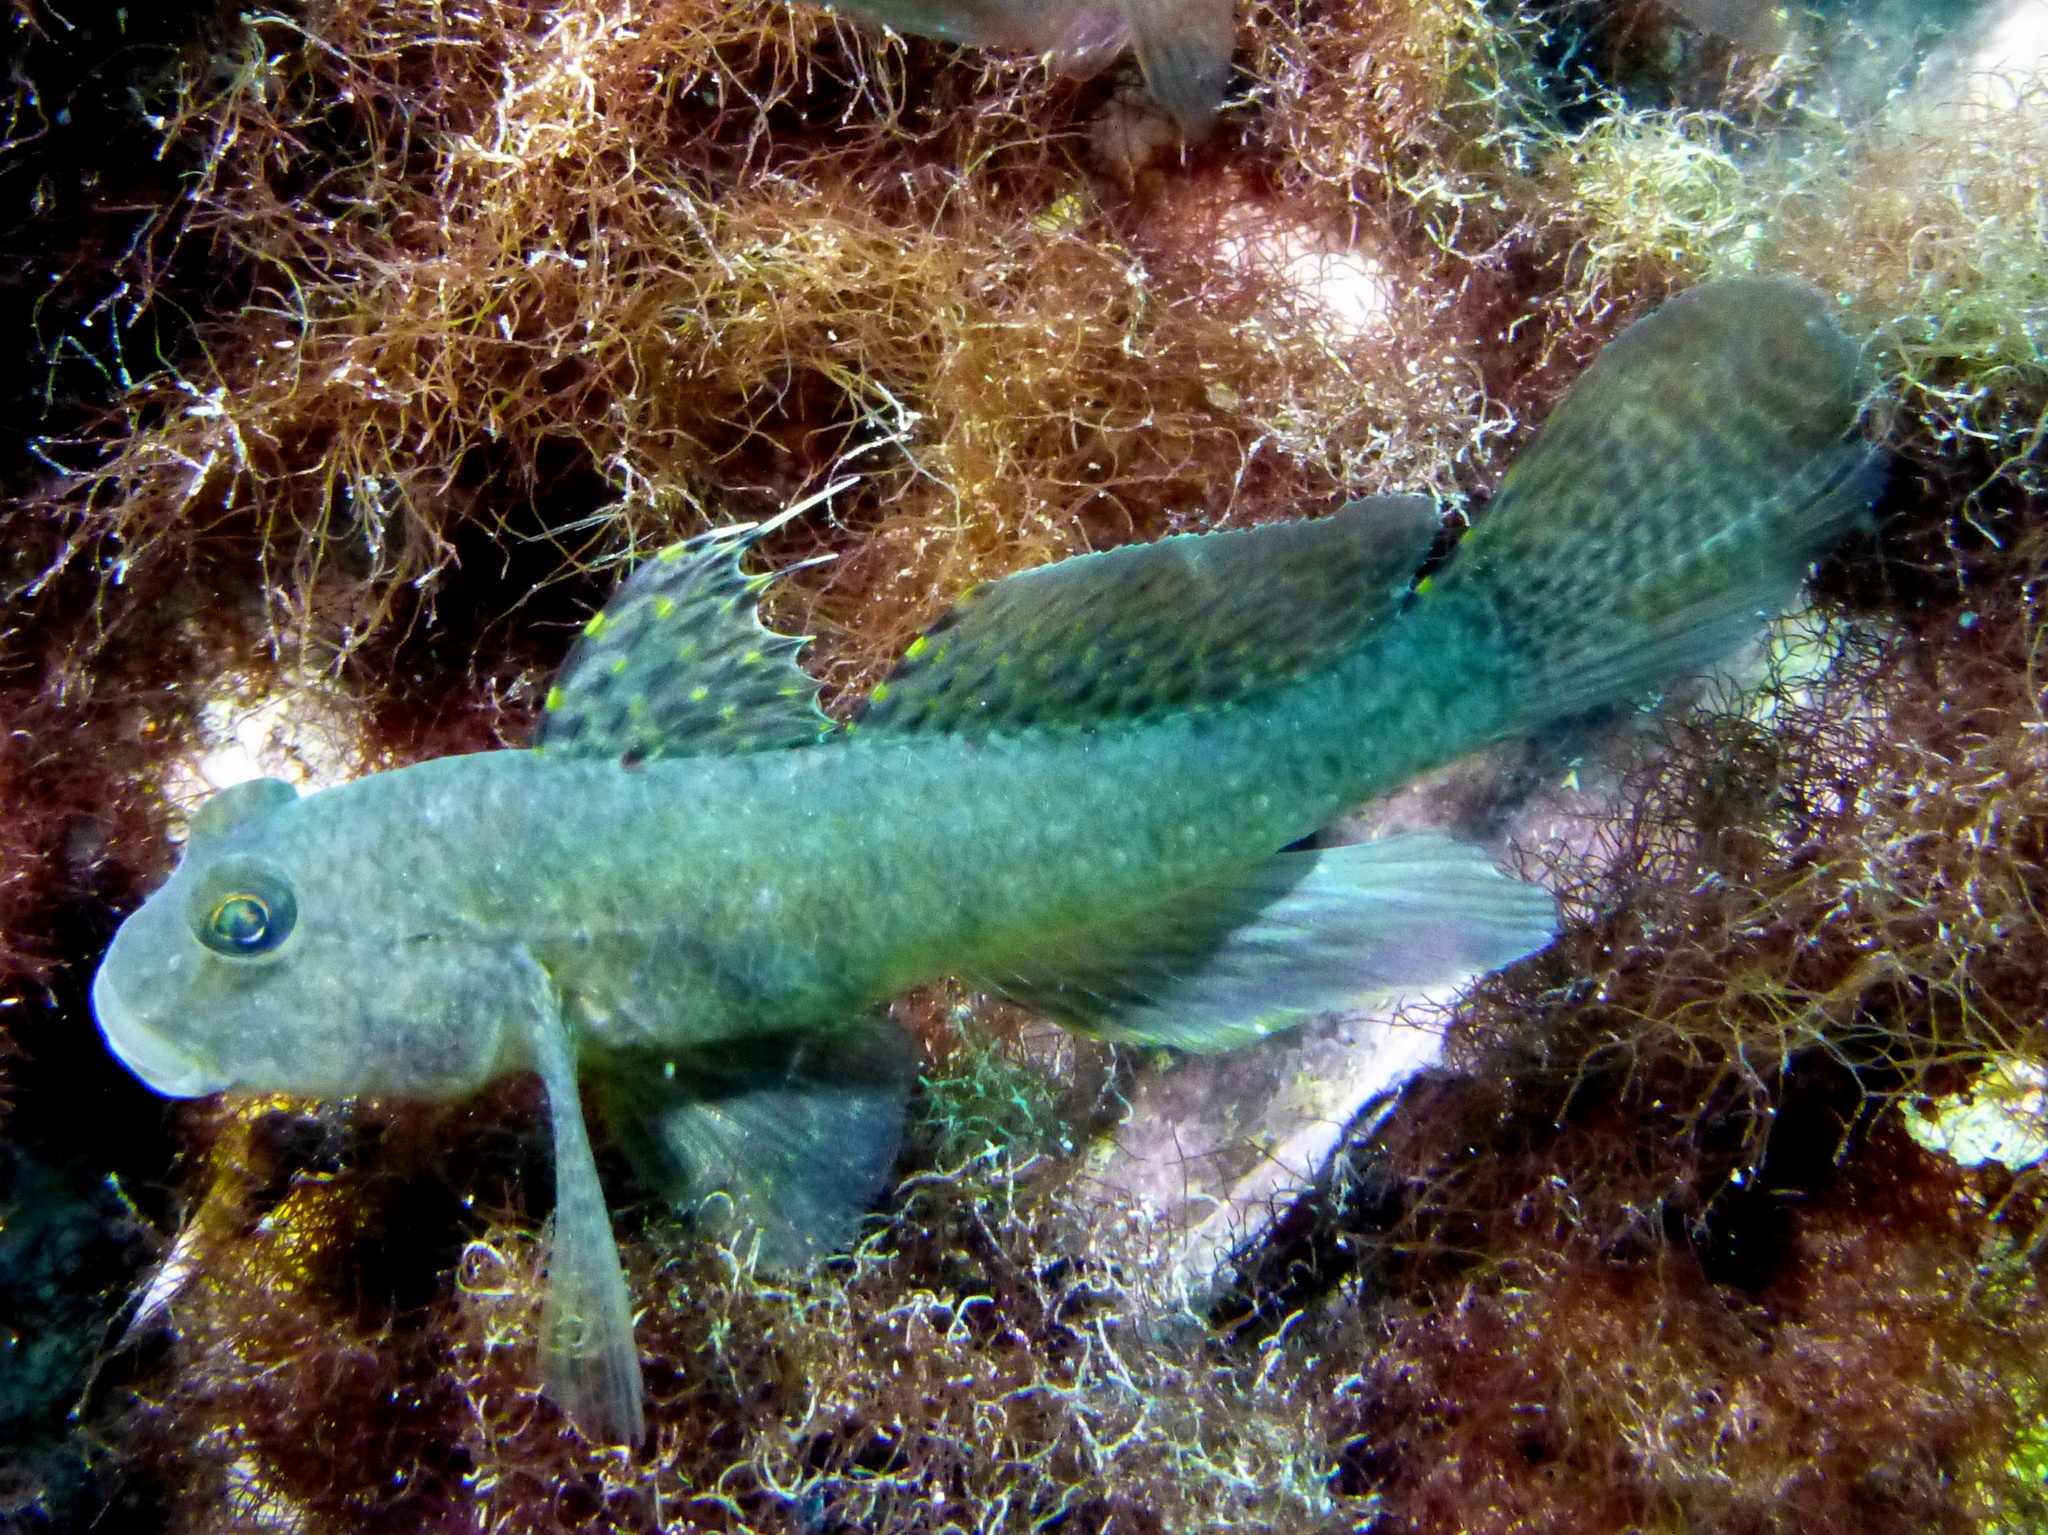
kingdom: Animalia
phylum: Chordata
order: Perciformes
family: Gobiidae
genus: Exyrias
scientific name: Exyrias puntang
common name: Puntang goby
